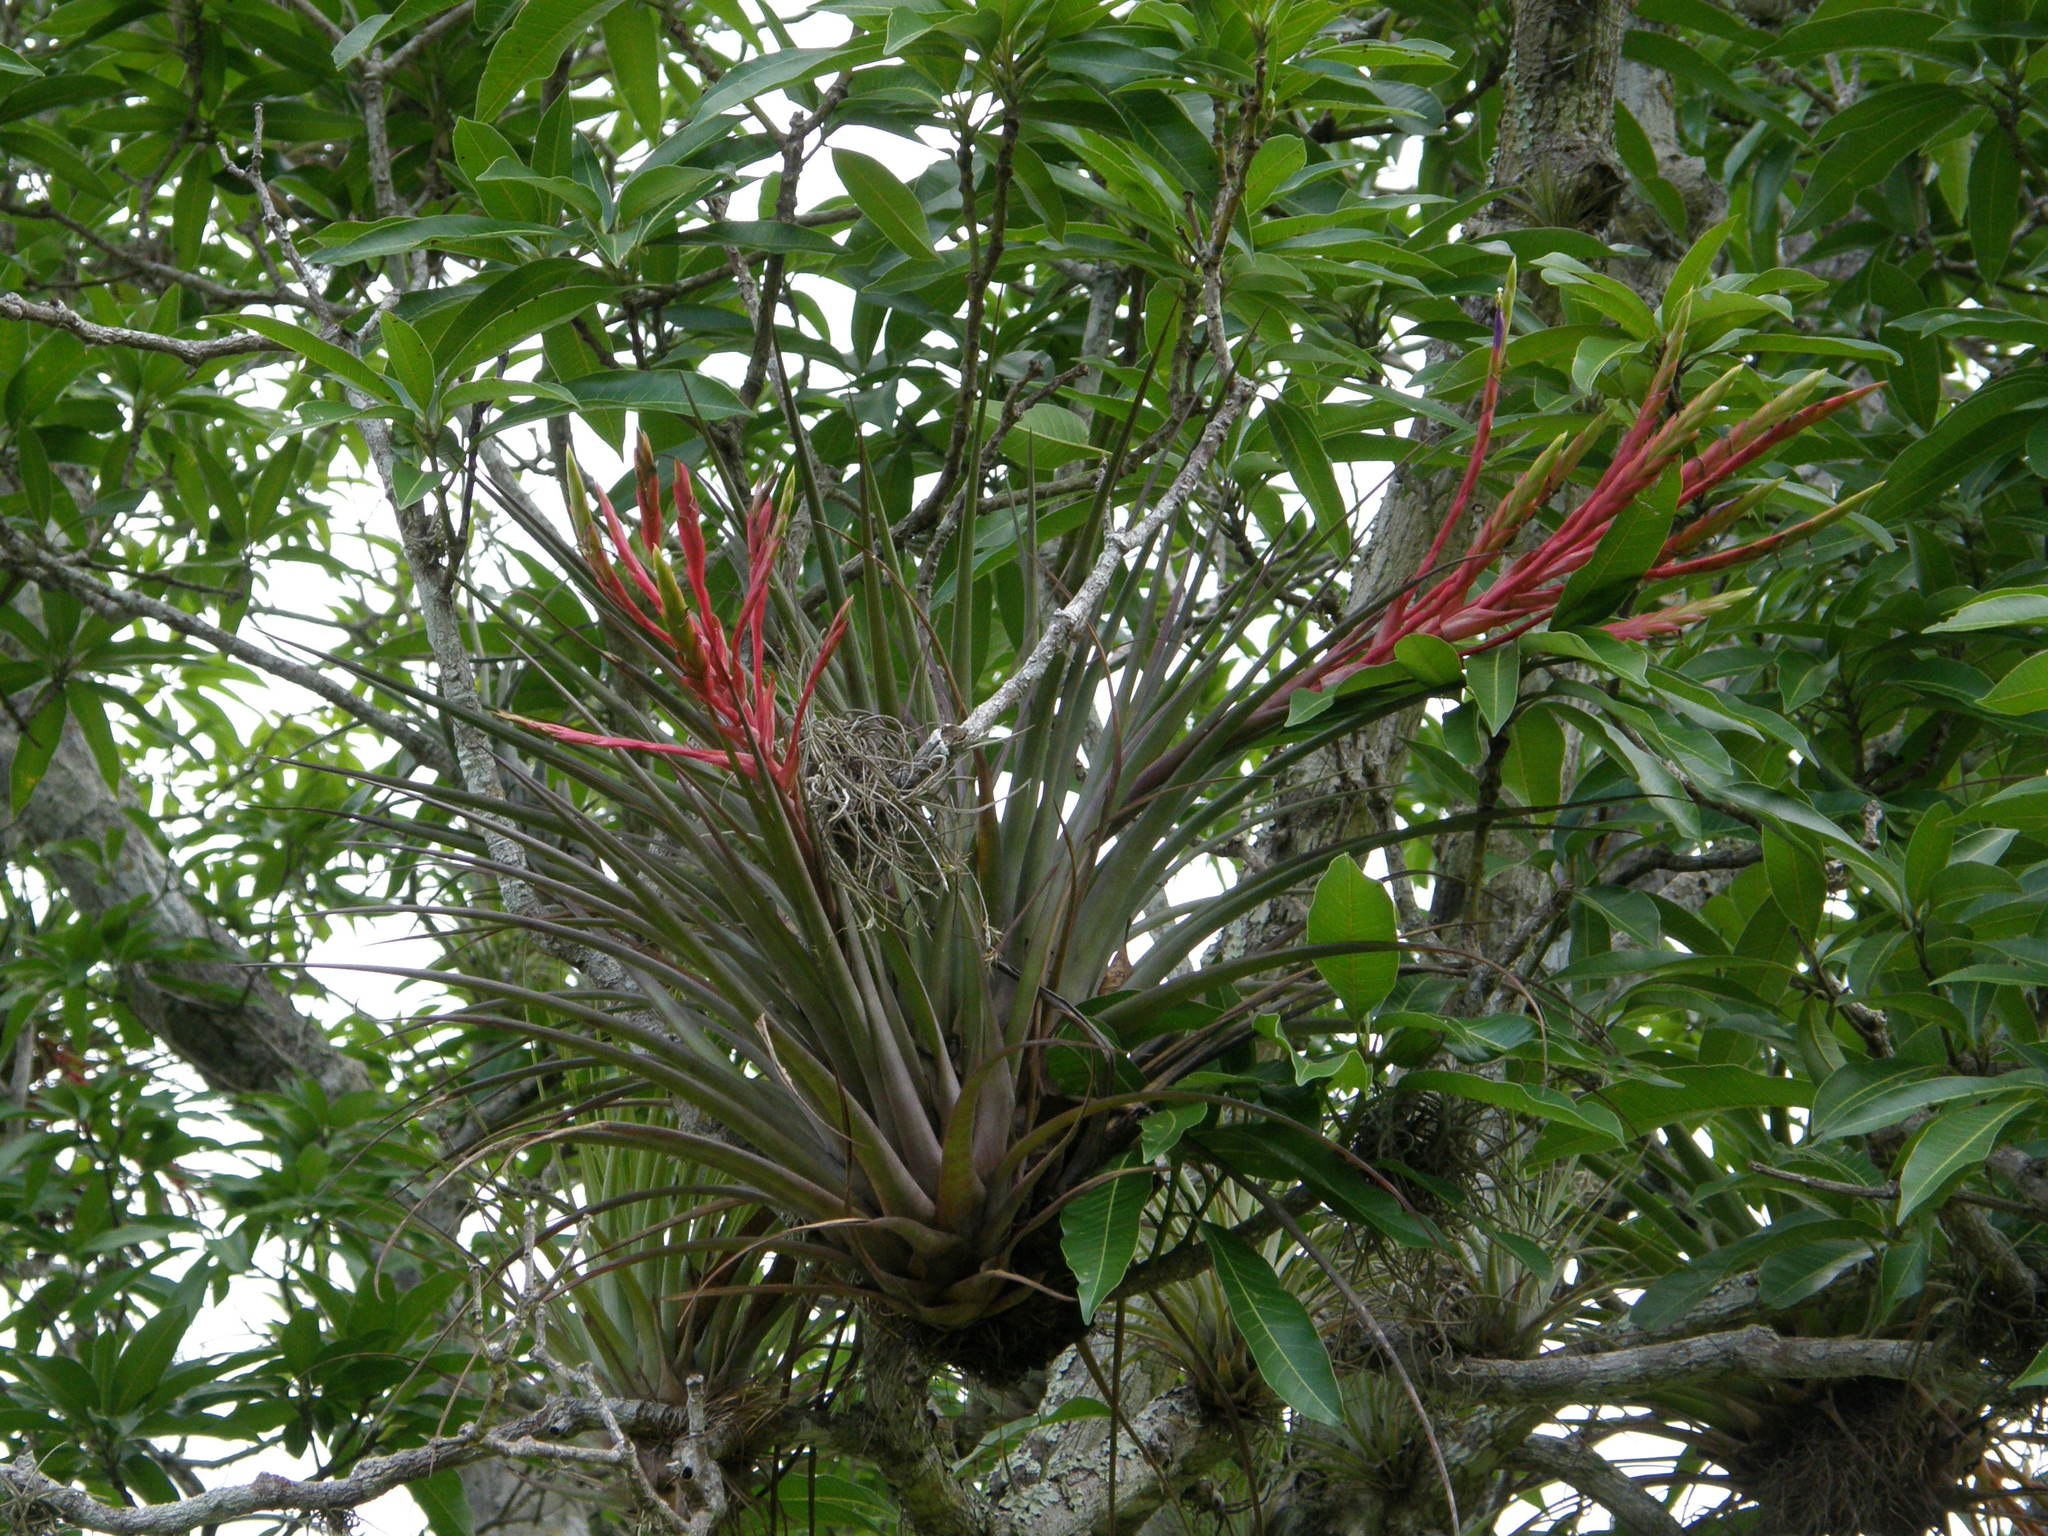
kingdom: Plantae
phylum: Tracheophyta
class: Liliopsida
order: Poales
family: Bromeliaceae
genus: Tillandsia
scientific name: Tillandsia fasciculata
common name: Giant airplant
